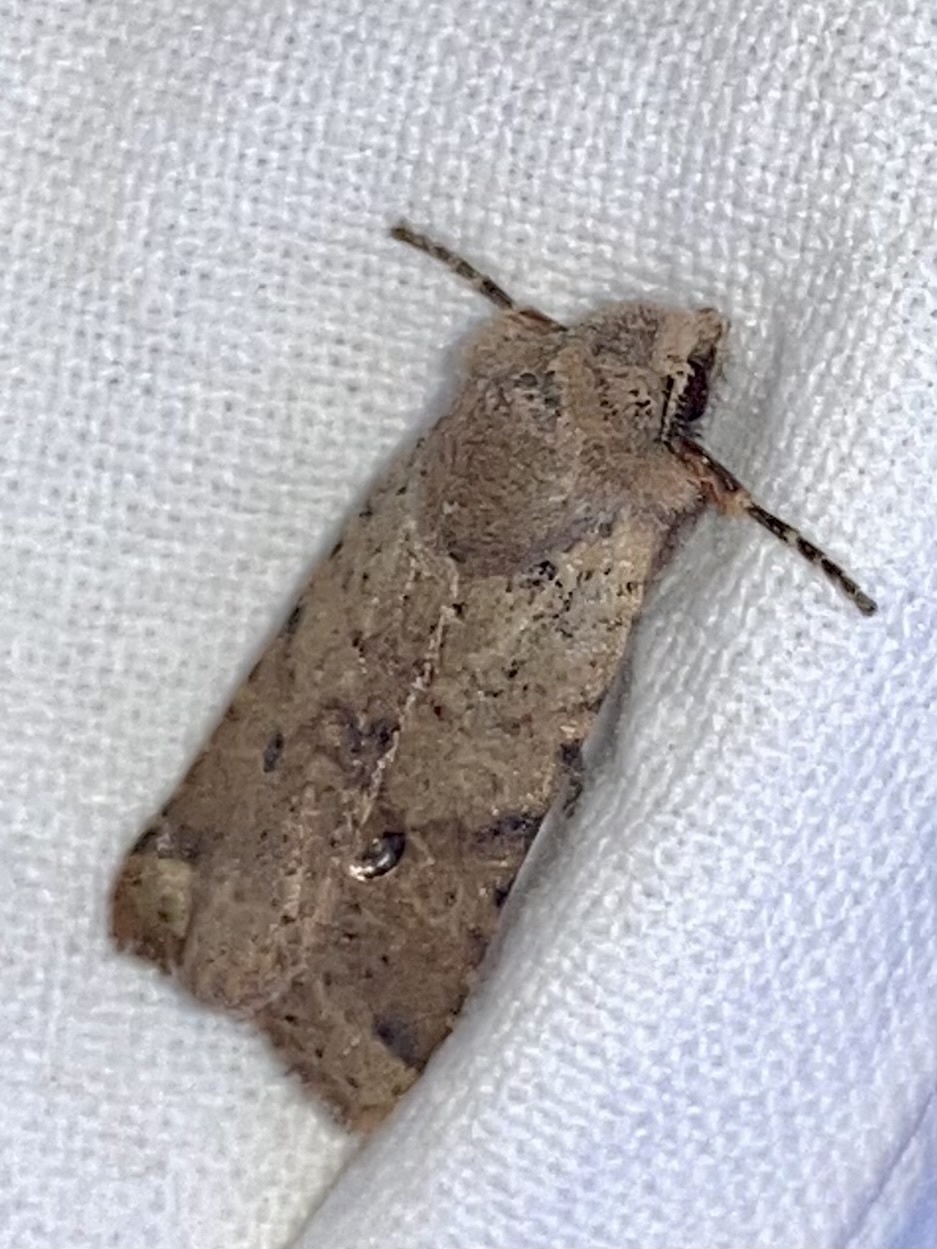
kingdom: Animalia
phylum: Arthropoda
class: Insecta
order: Lepidoptera
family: Noctuidae
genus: Agrochola
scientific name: Agrochola ruticilla
